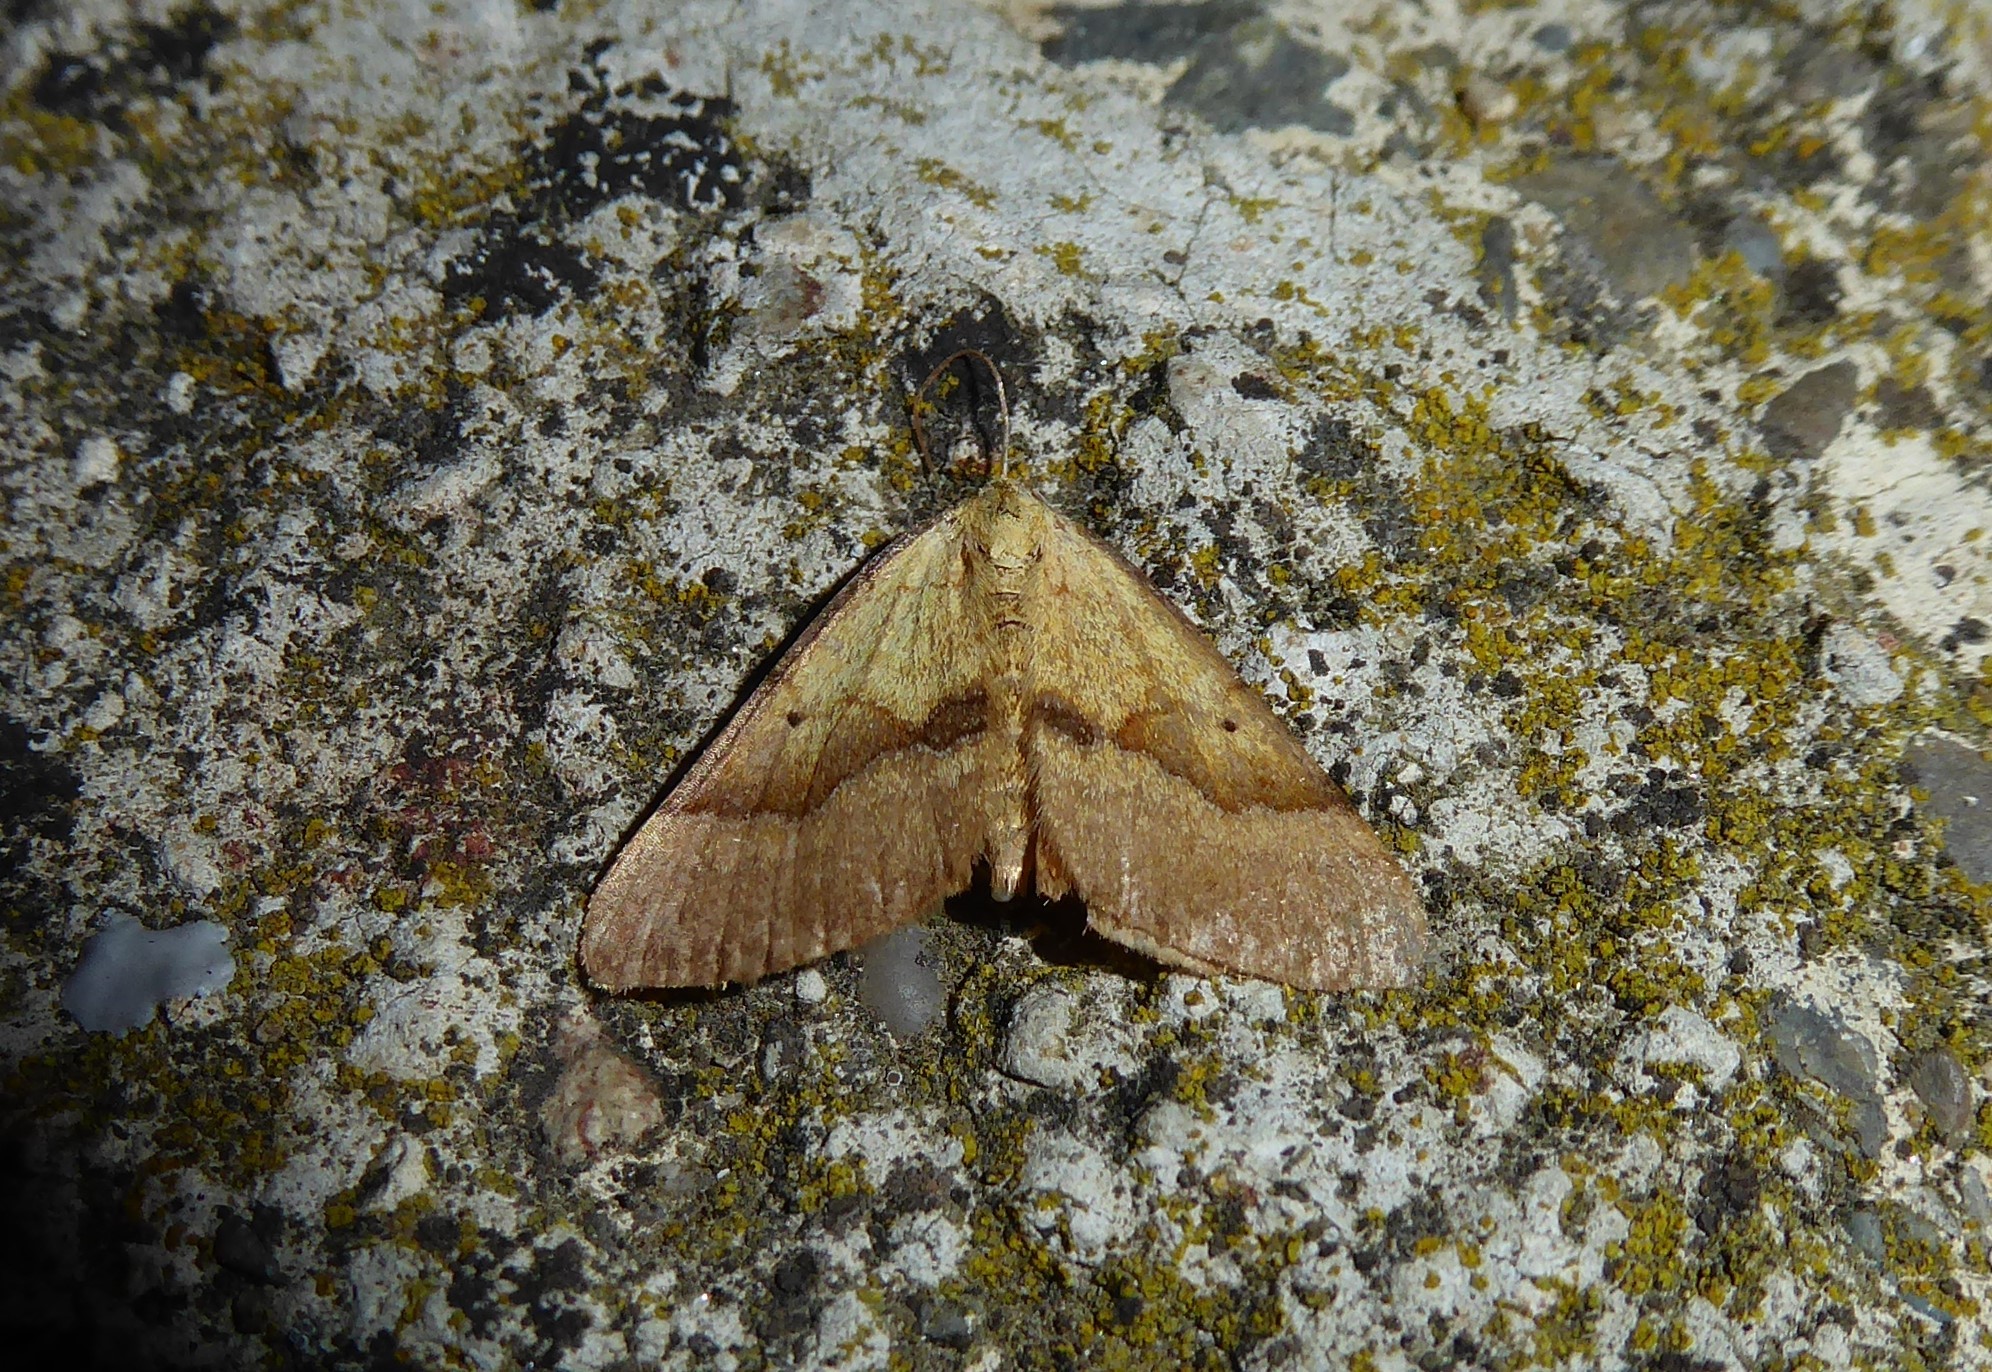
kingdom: Animalia
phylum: Arthropoda
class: Insecta
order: Lepidoptera
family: Geometridae
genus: Anachloris
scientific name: Anachloris subochraria
